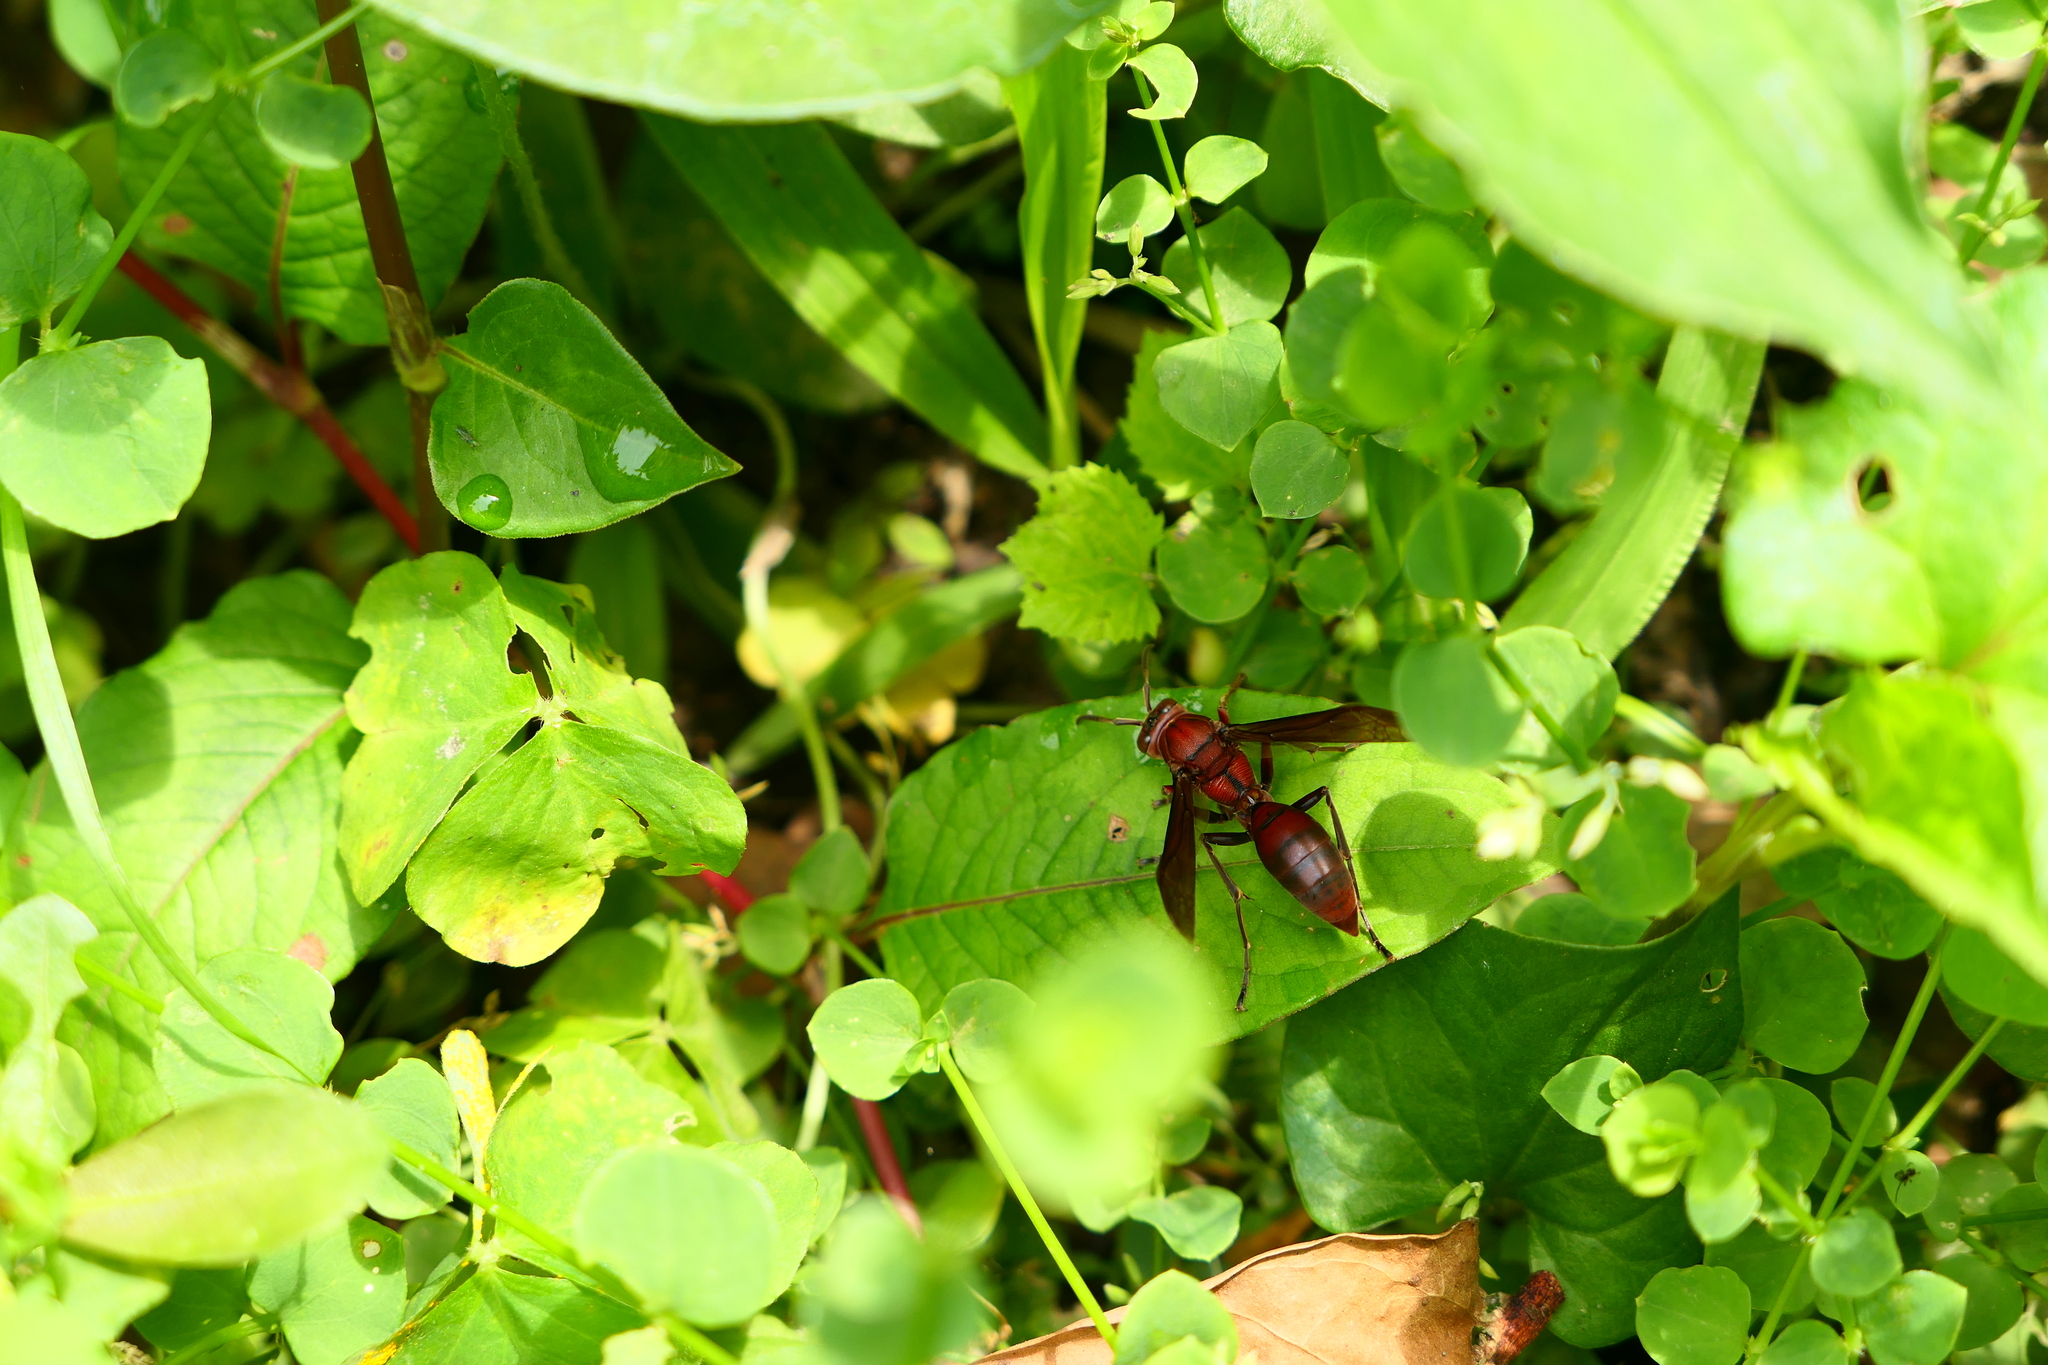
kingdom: Animalia
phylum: Arthropoda
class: Insecta
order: Hymenoptera
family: Eumenidae
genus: Polistes
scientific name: Polistes tenebricosus
